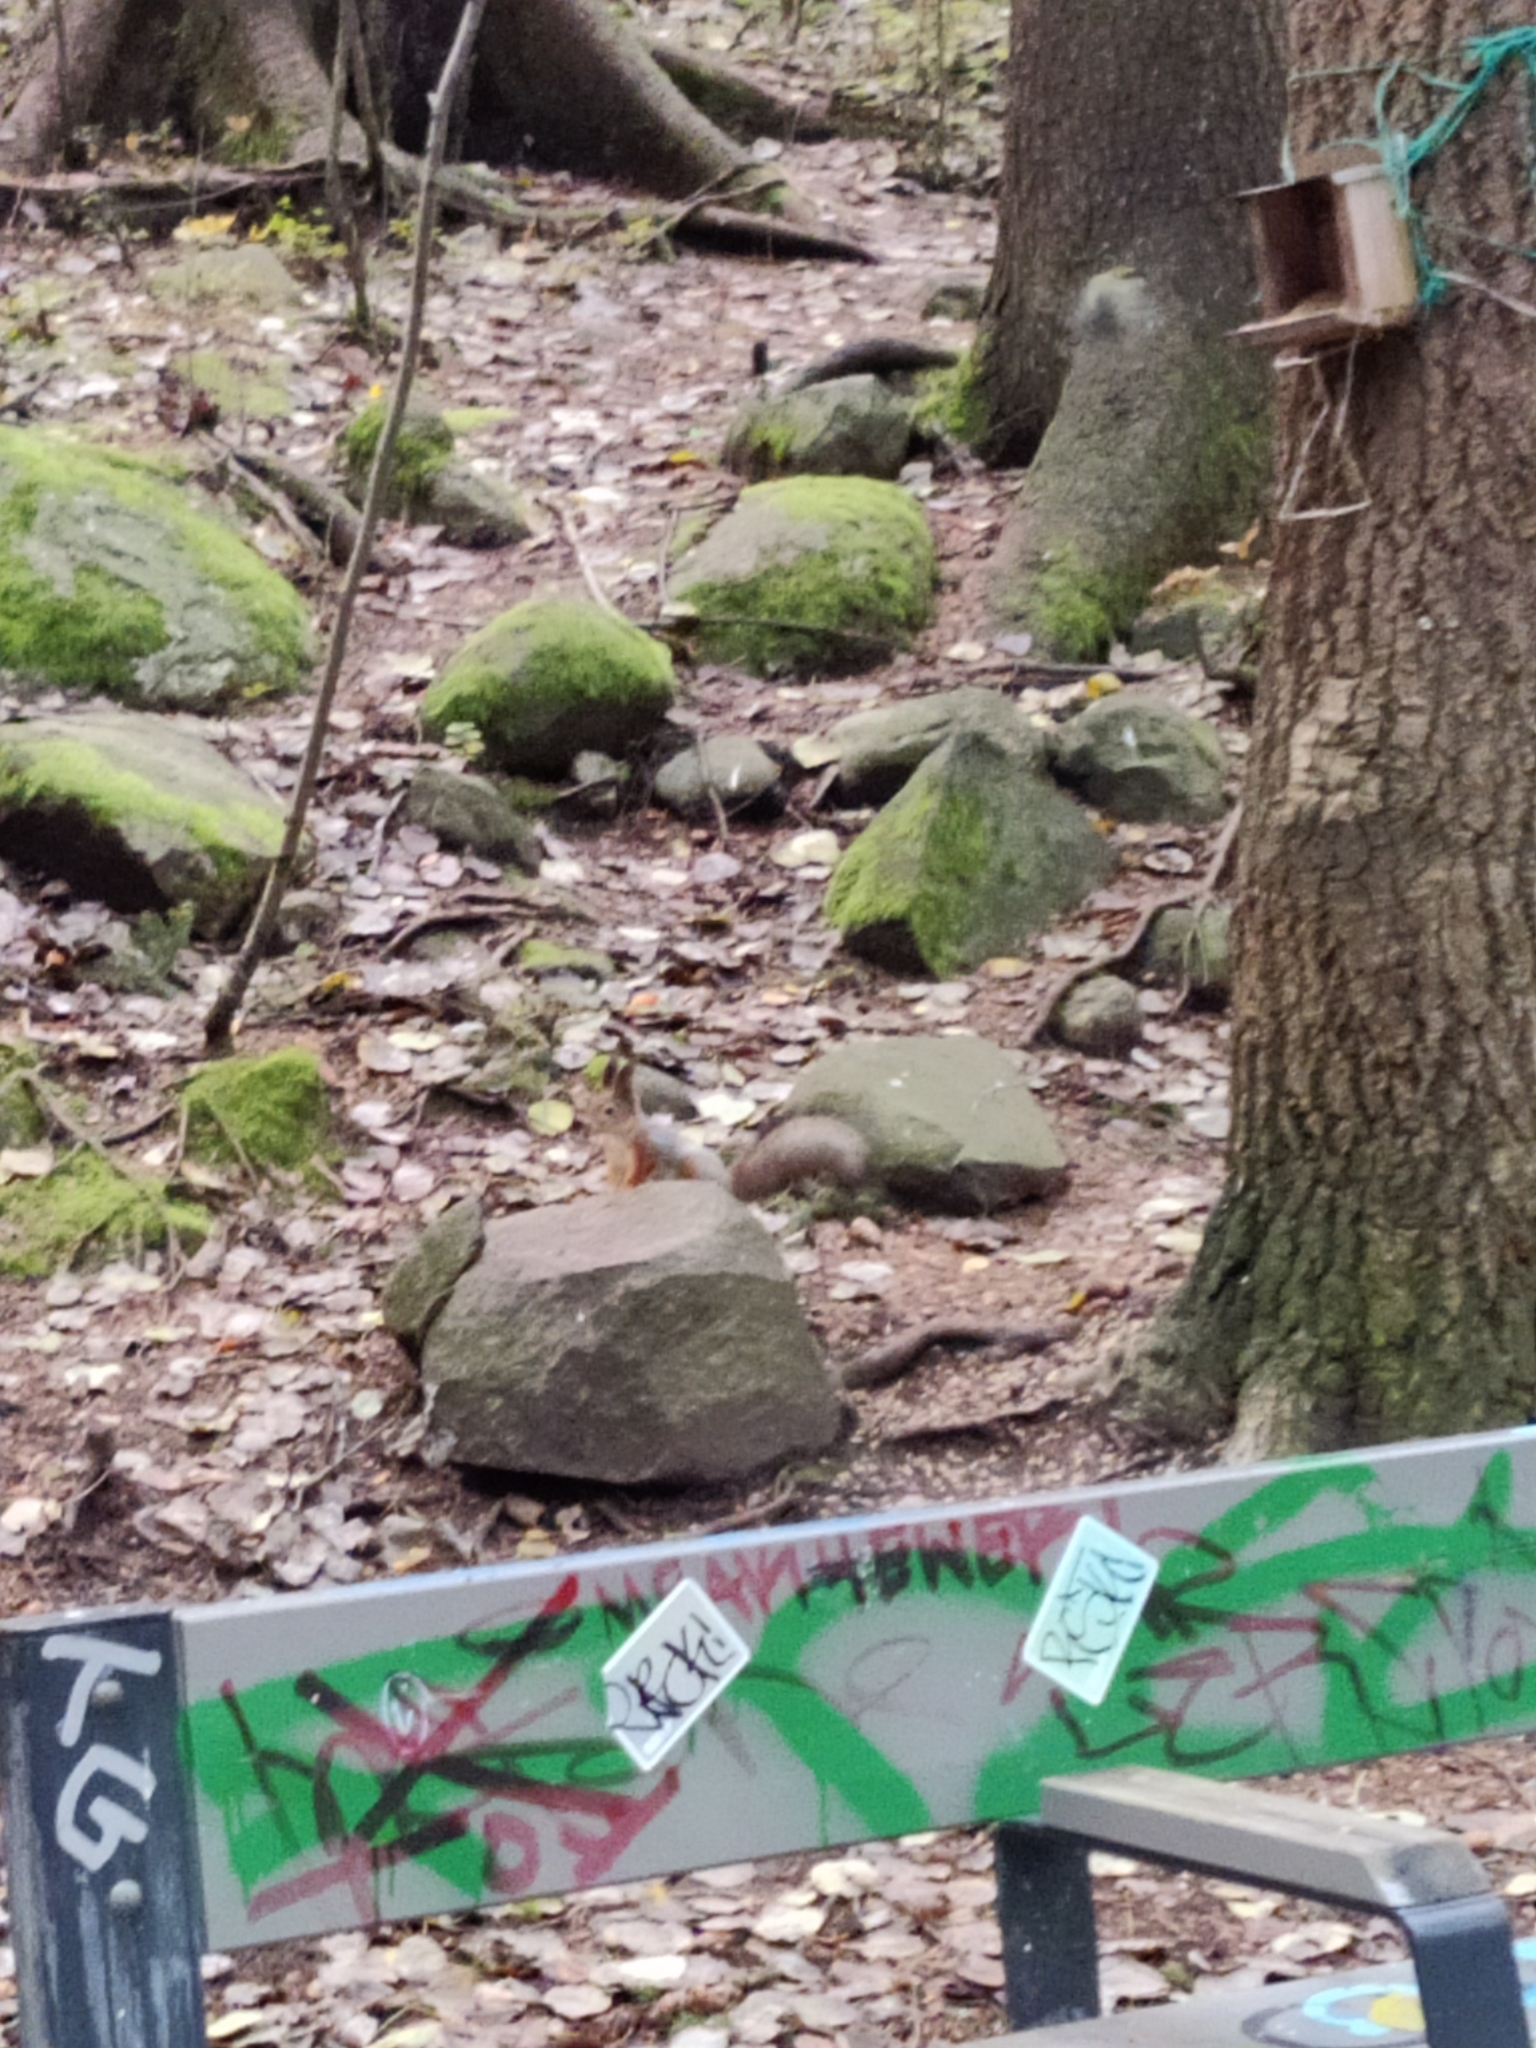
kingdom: Animalia
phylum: Chordata
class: Mammalia
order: Rodentia
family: Sciuridae
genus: Sciurus
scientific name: Sciurus vulgaris
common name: Eurasian red squirrel
